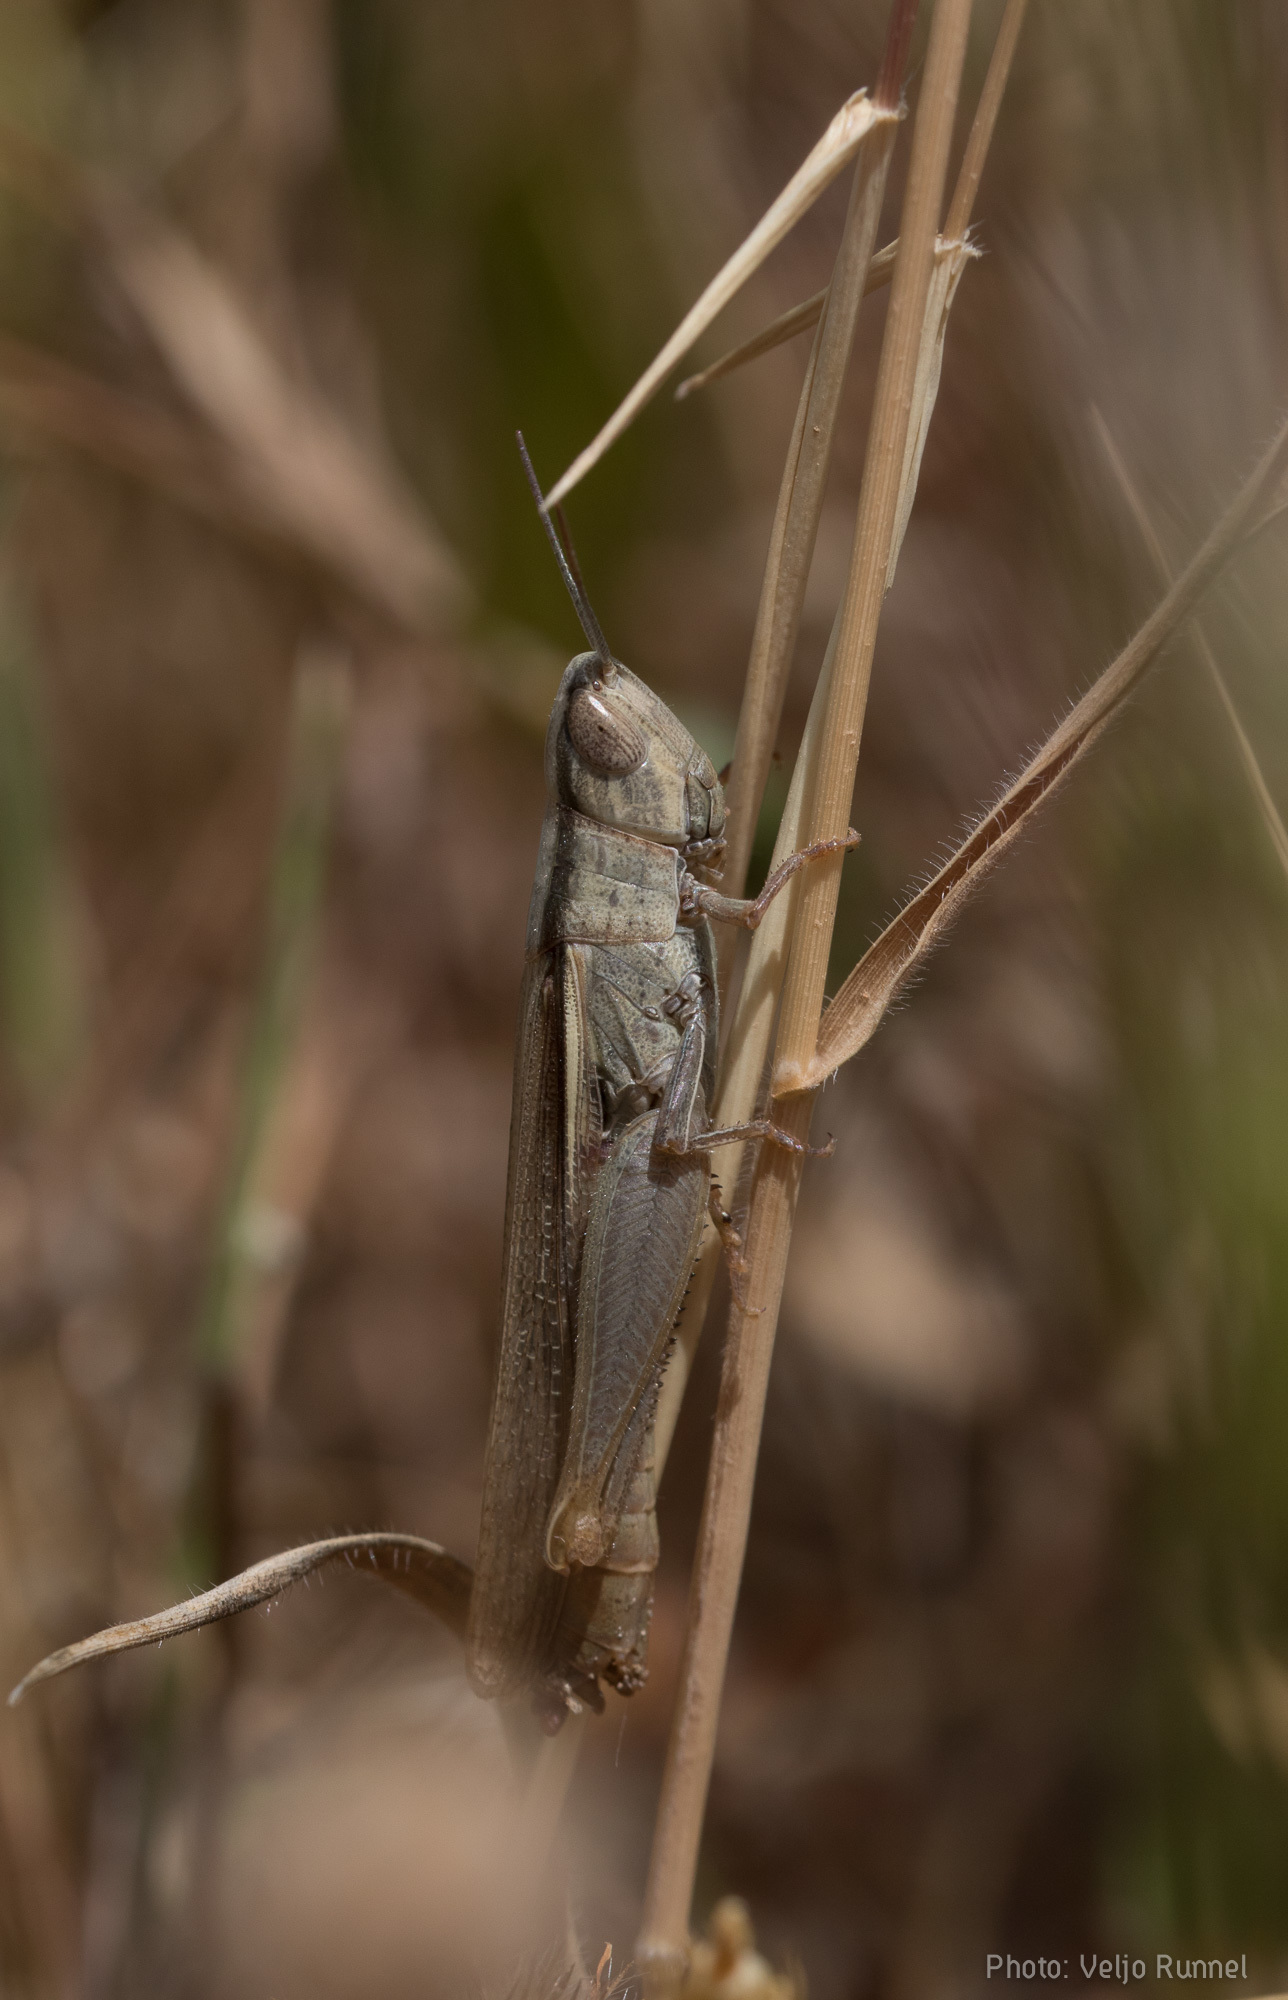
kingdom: Animalia
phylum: Arthropoda
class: Insecta
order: Orthoptera
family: Acrididae
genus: Ochrilidia
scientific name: Ochrilidia pruinosa
